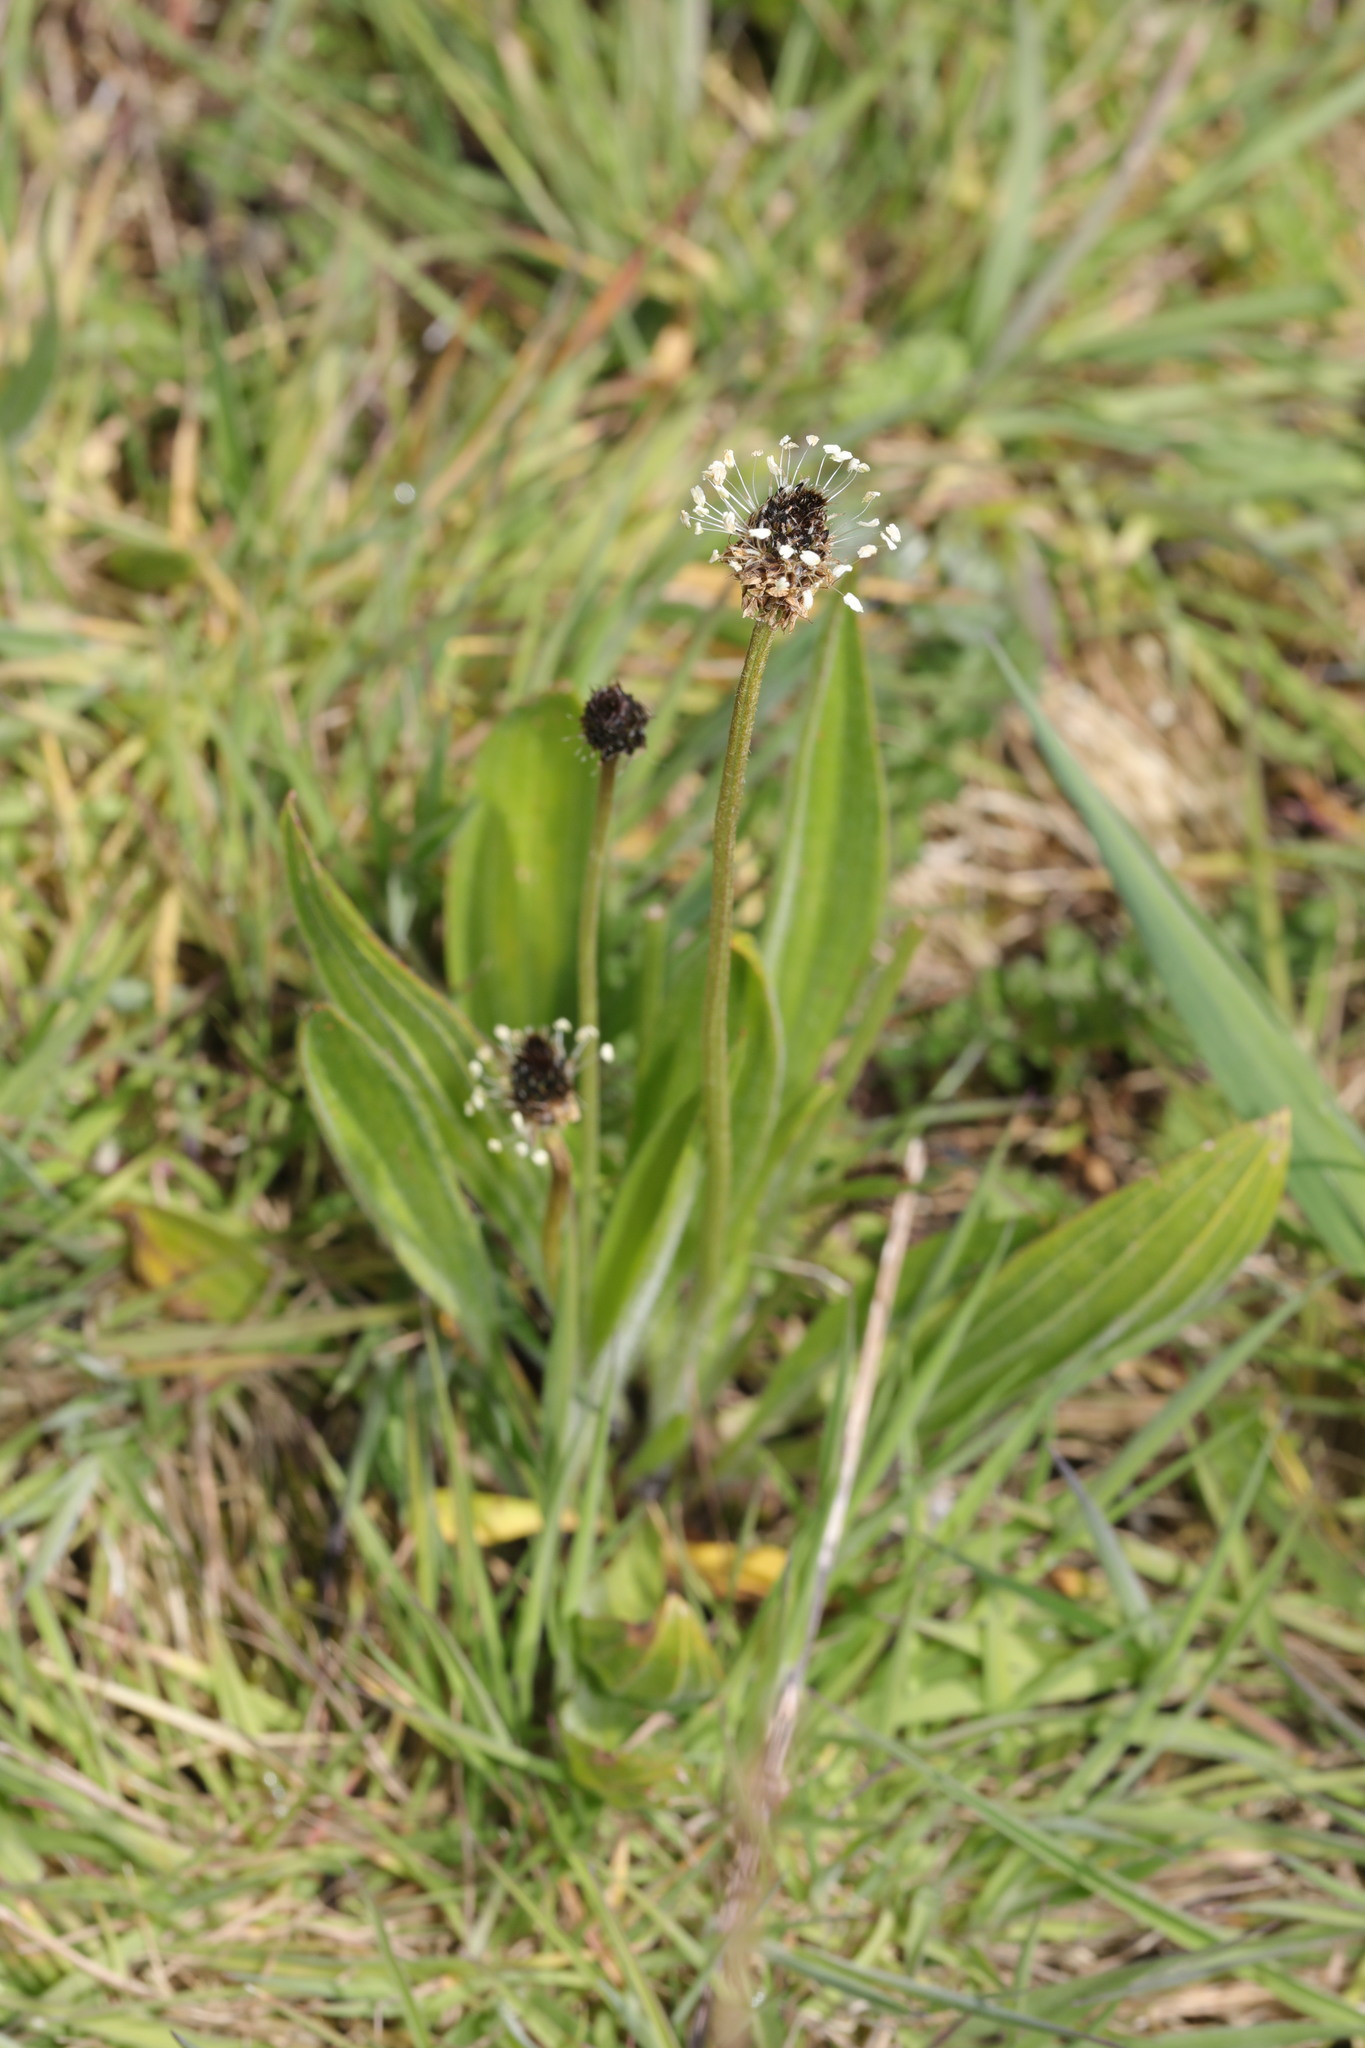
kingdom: Plantae
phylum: Tracheophyta
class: Magnoliopsida
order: Lamiales
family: Plantaginaceae
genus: Plantago
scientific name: Plantago lanceolata
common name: Ribwort plantain
